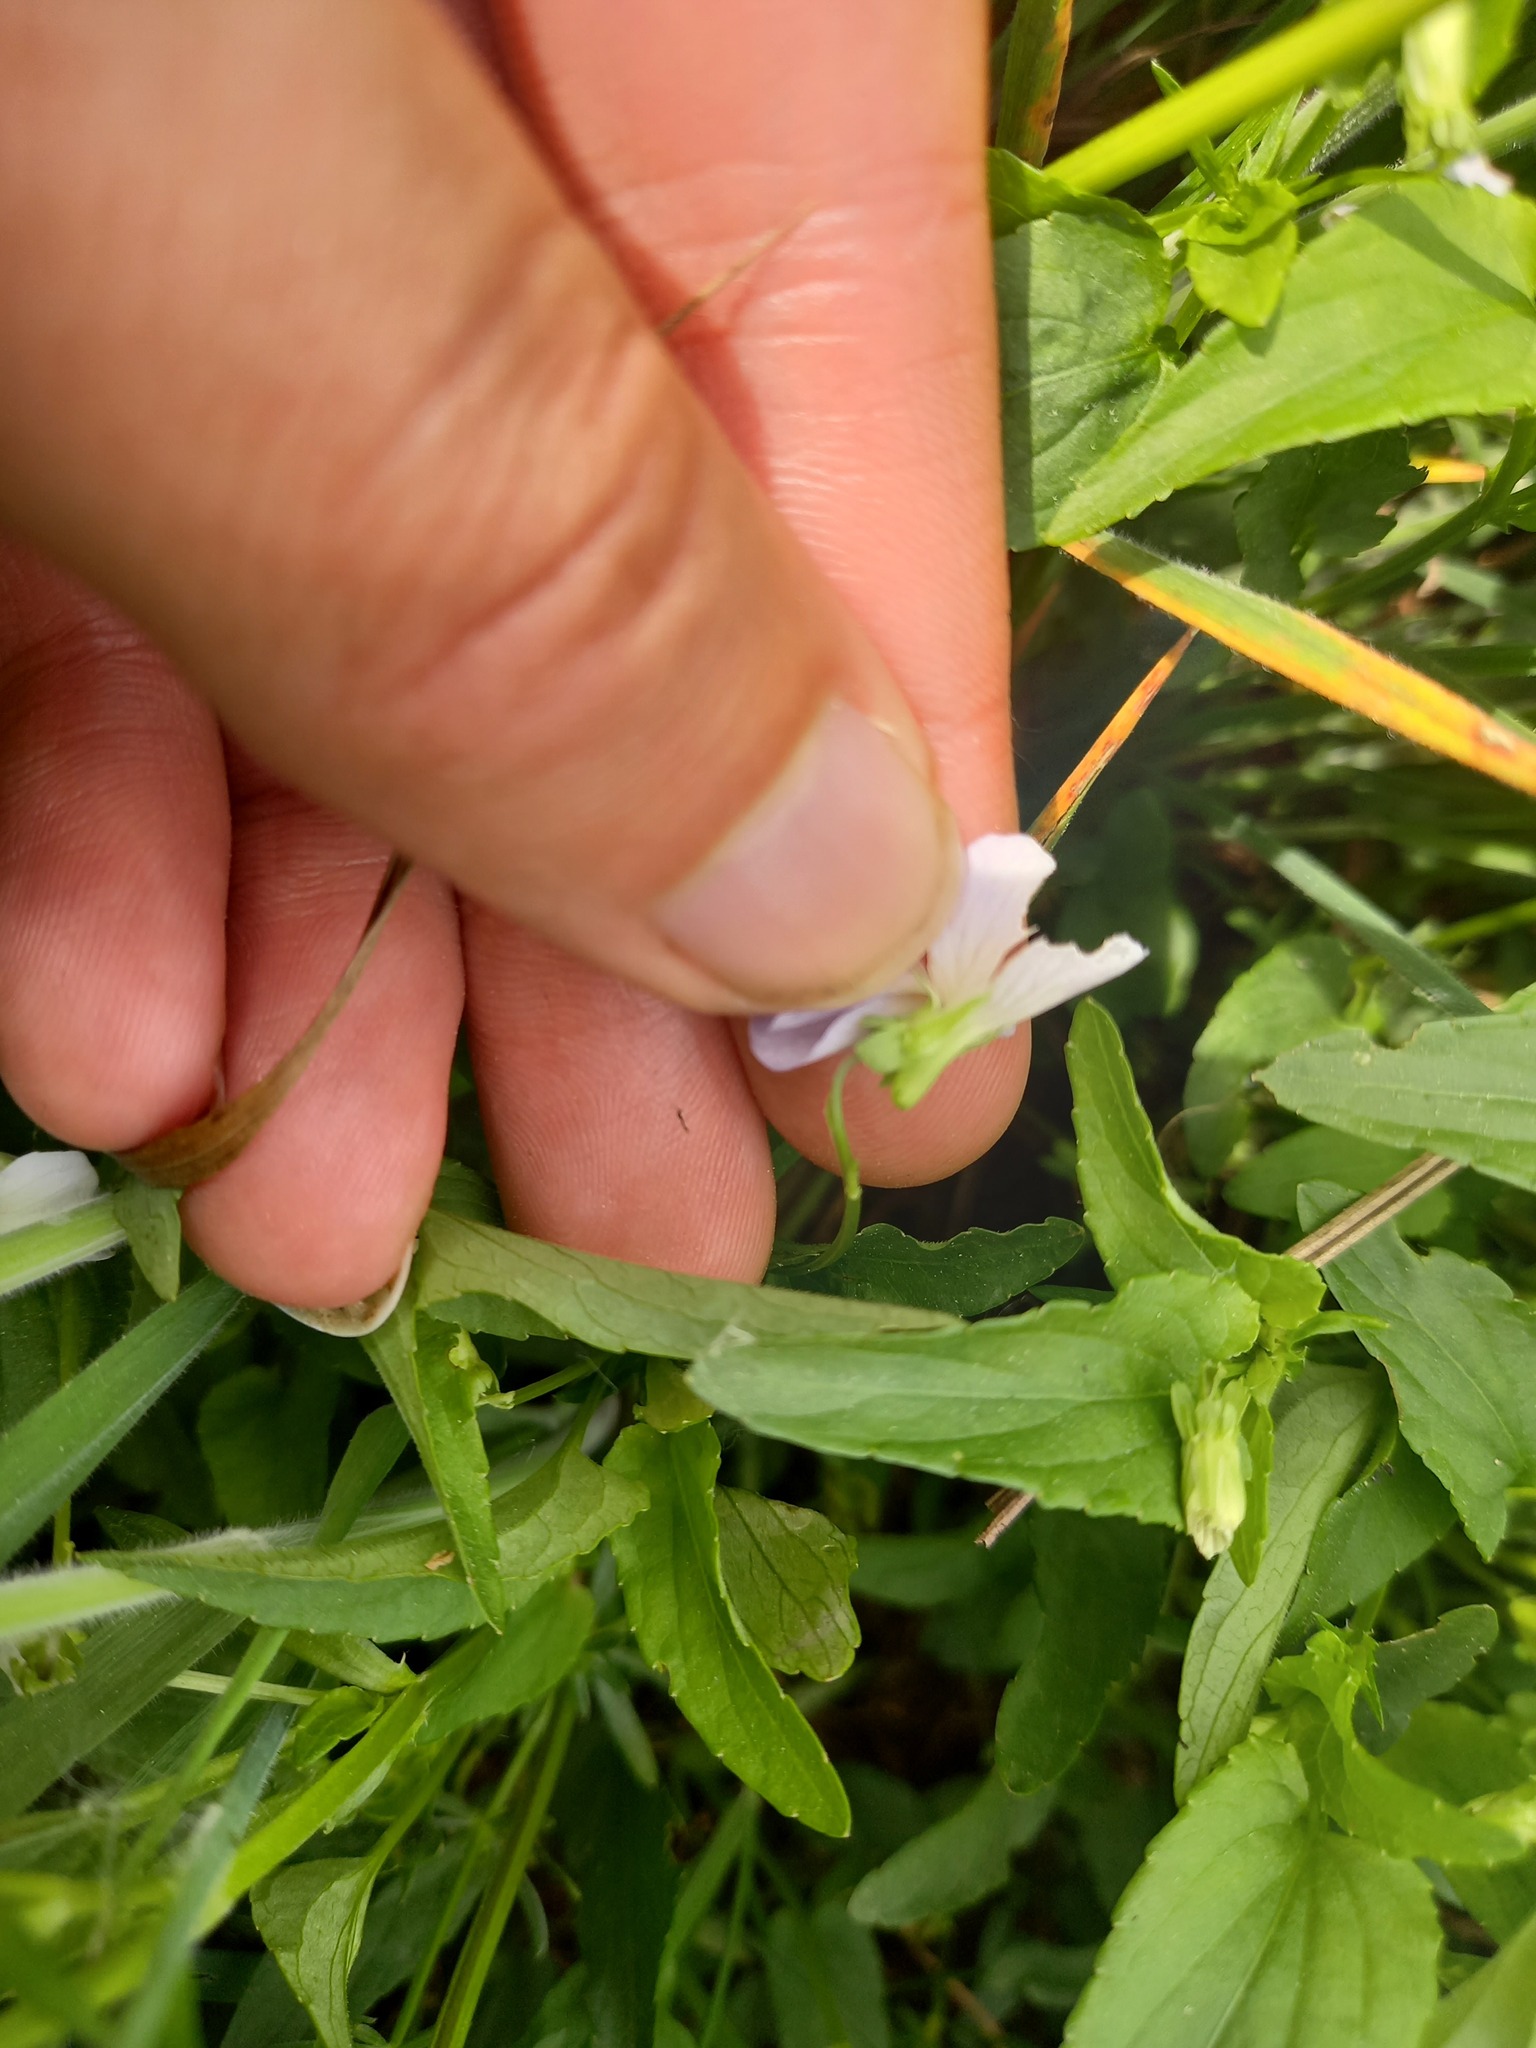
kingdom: Plantae
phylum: Tracheophyta
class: Magnoliopsida
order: Malpighiales
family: Violaceae
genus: Viola
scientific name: Viola stagnina
